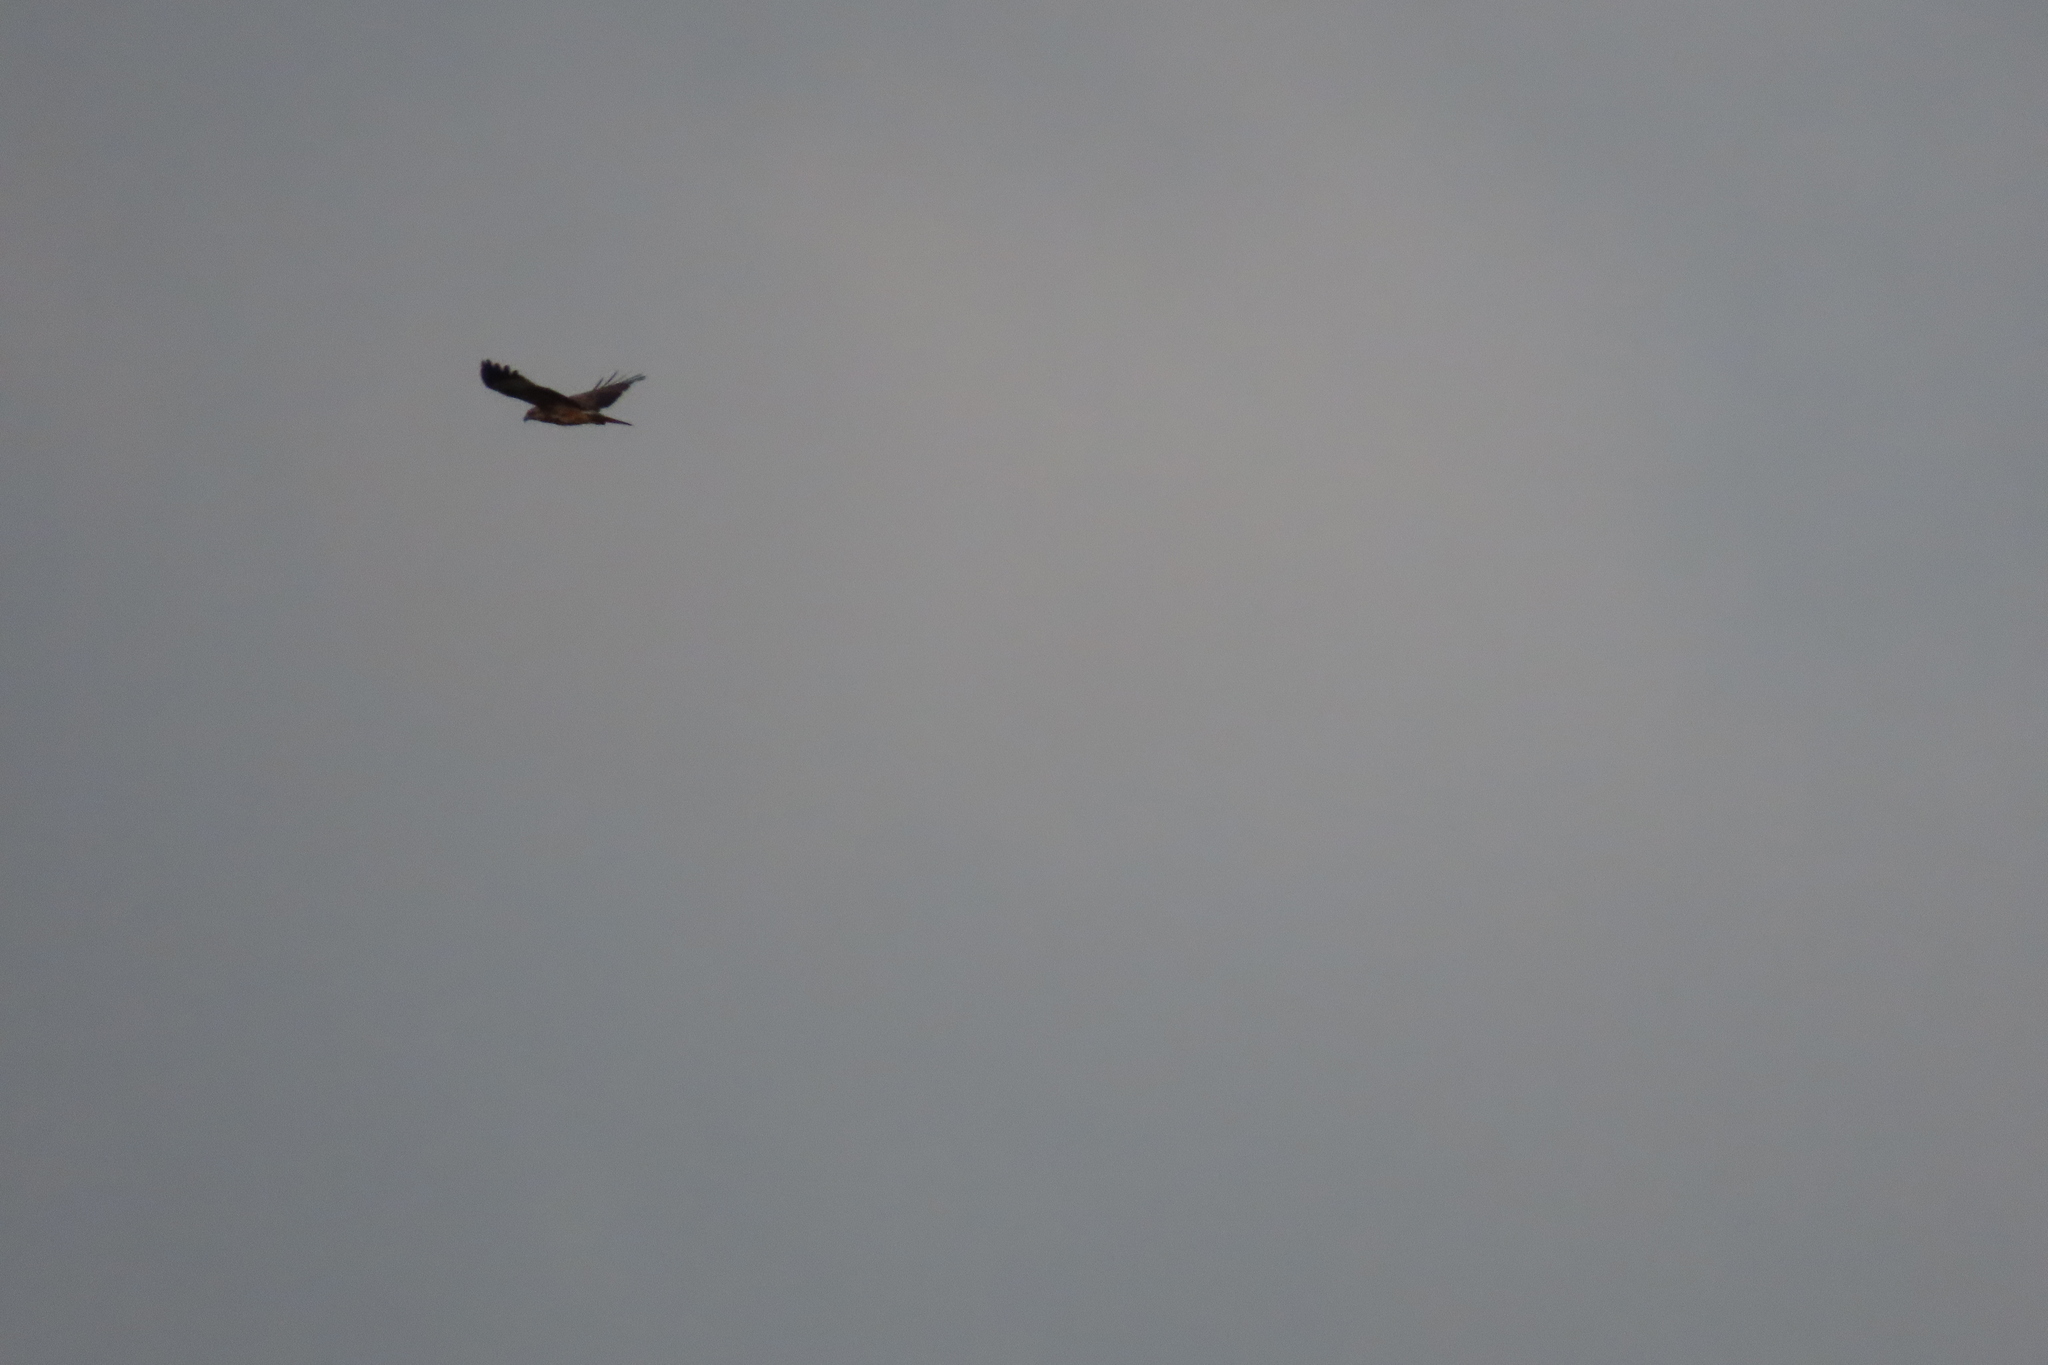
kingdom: Animalia
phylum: Chordata
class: Aves
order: Accipitriformes
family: Accipitridae
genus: Haliastur
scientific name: Haliastur indus
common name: Brahminy kite
